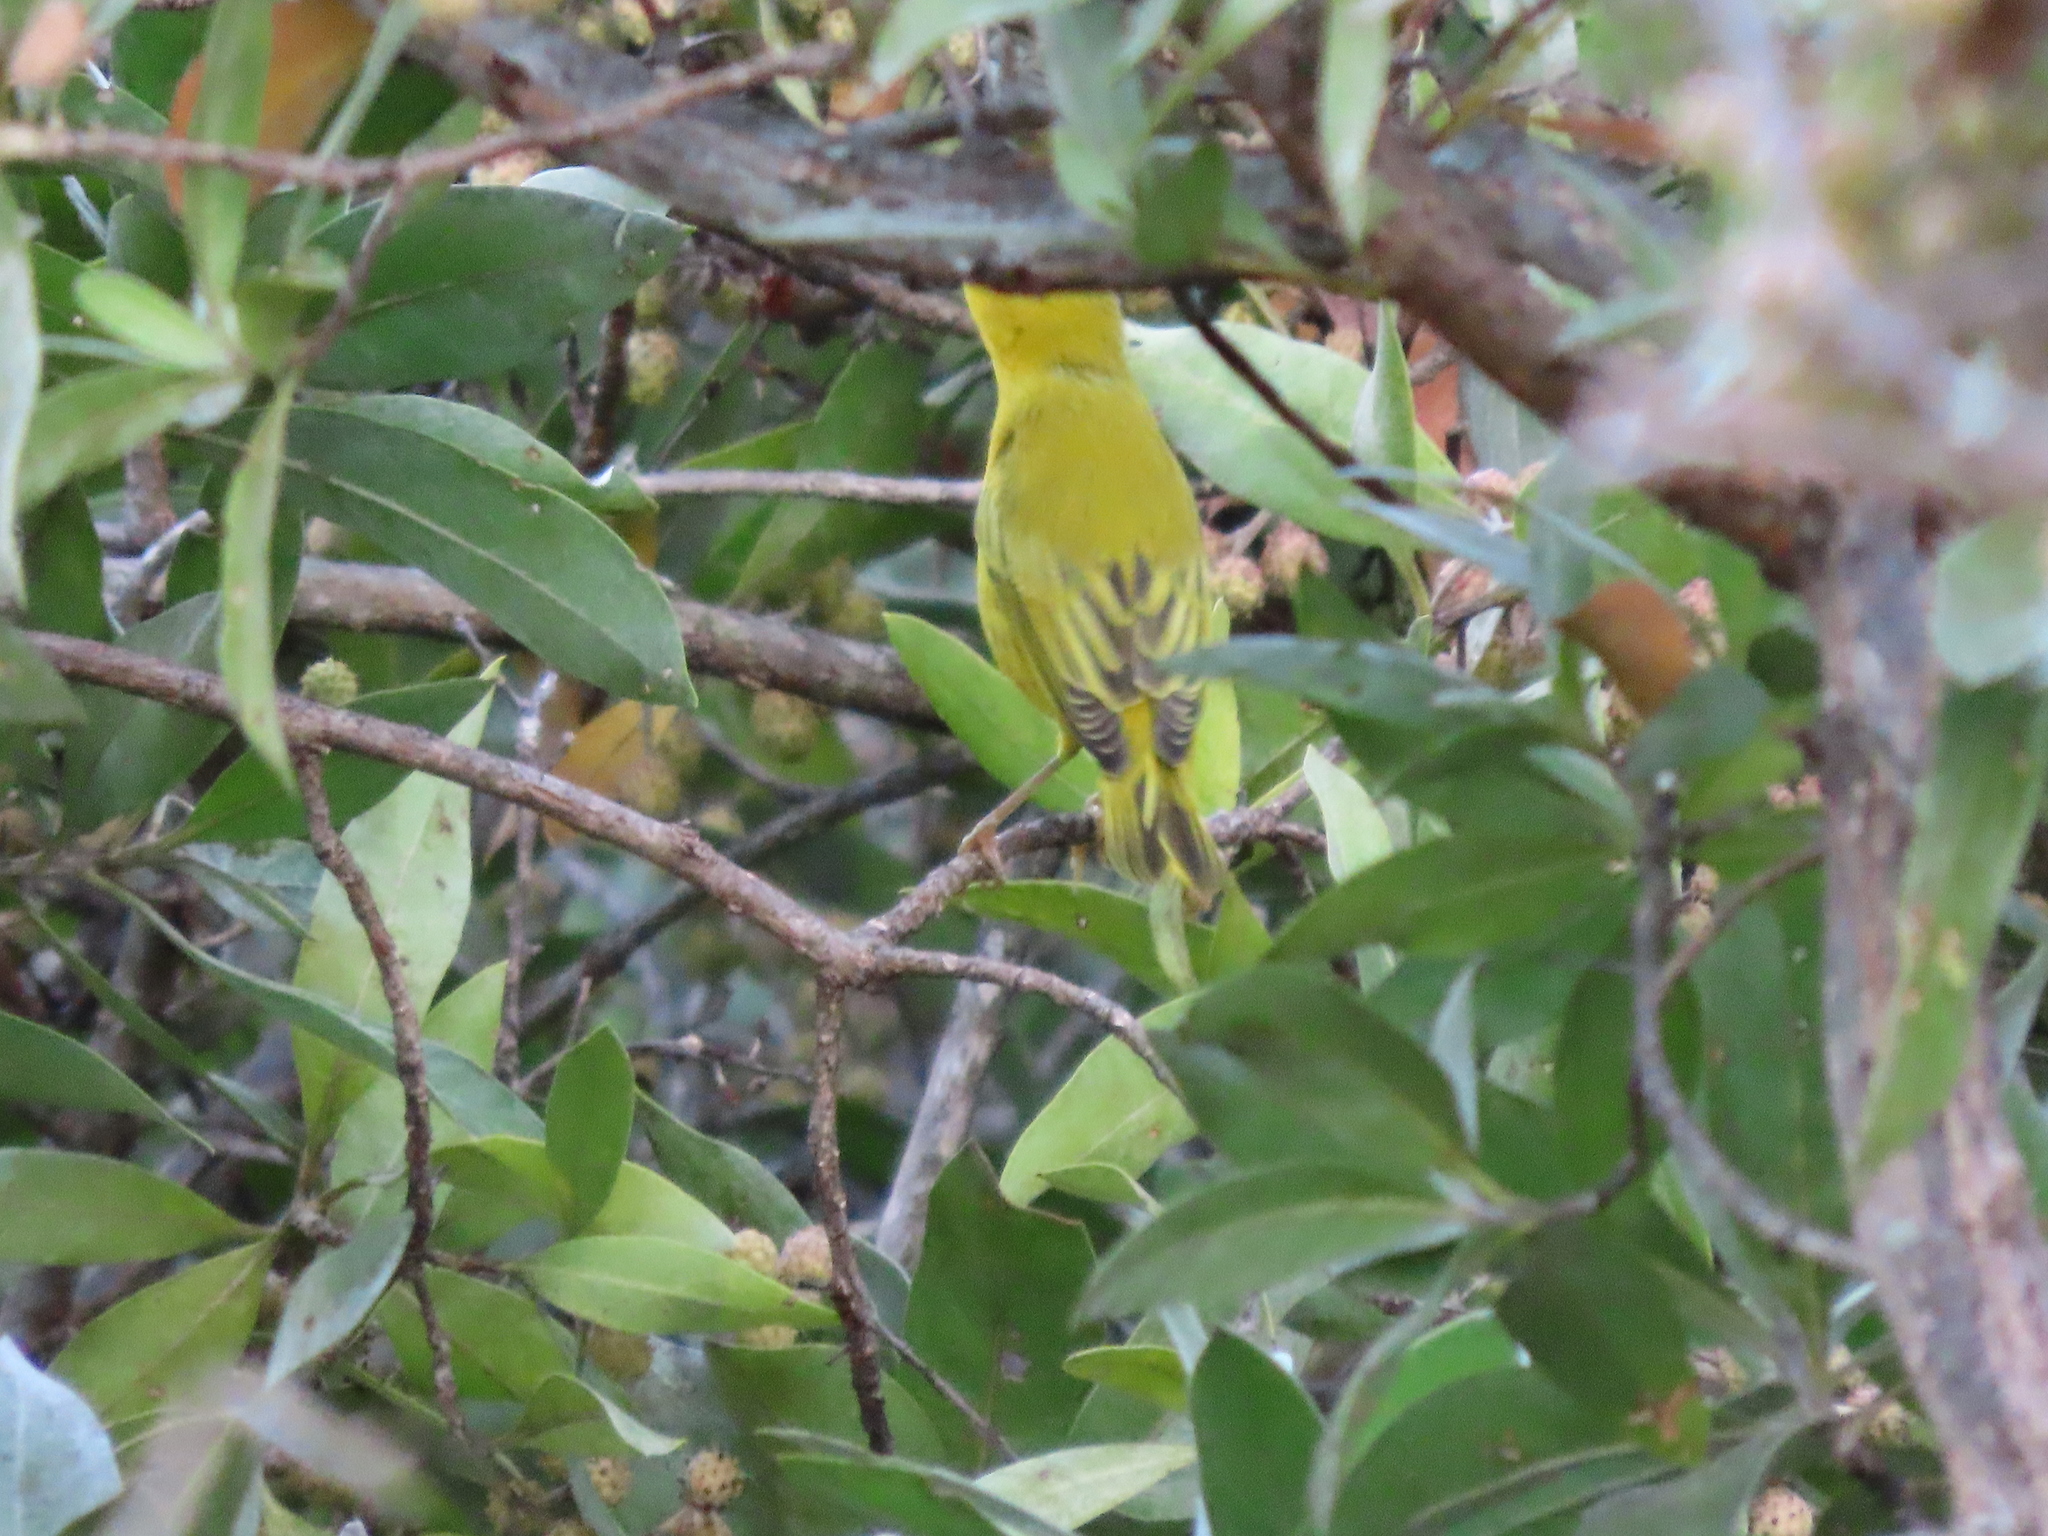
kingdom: Animalia
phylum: Chordata
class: Aves
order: Passeriformes
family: Parulidae
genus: Setophaga
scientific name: Setophaga petechia
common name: Yellow warbler
